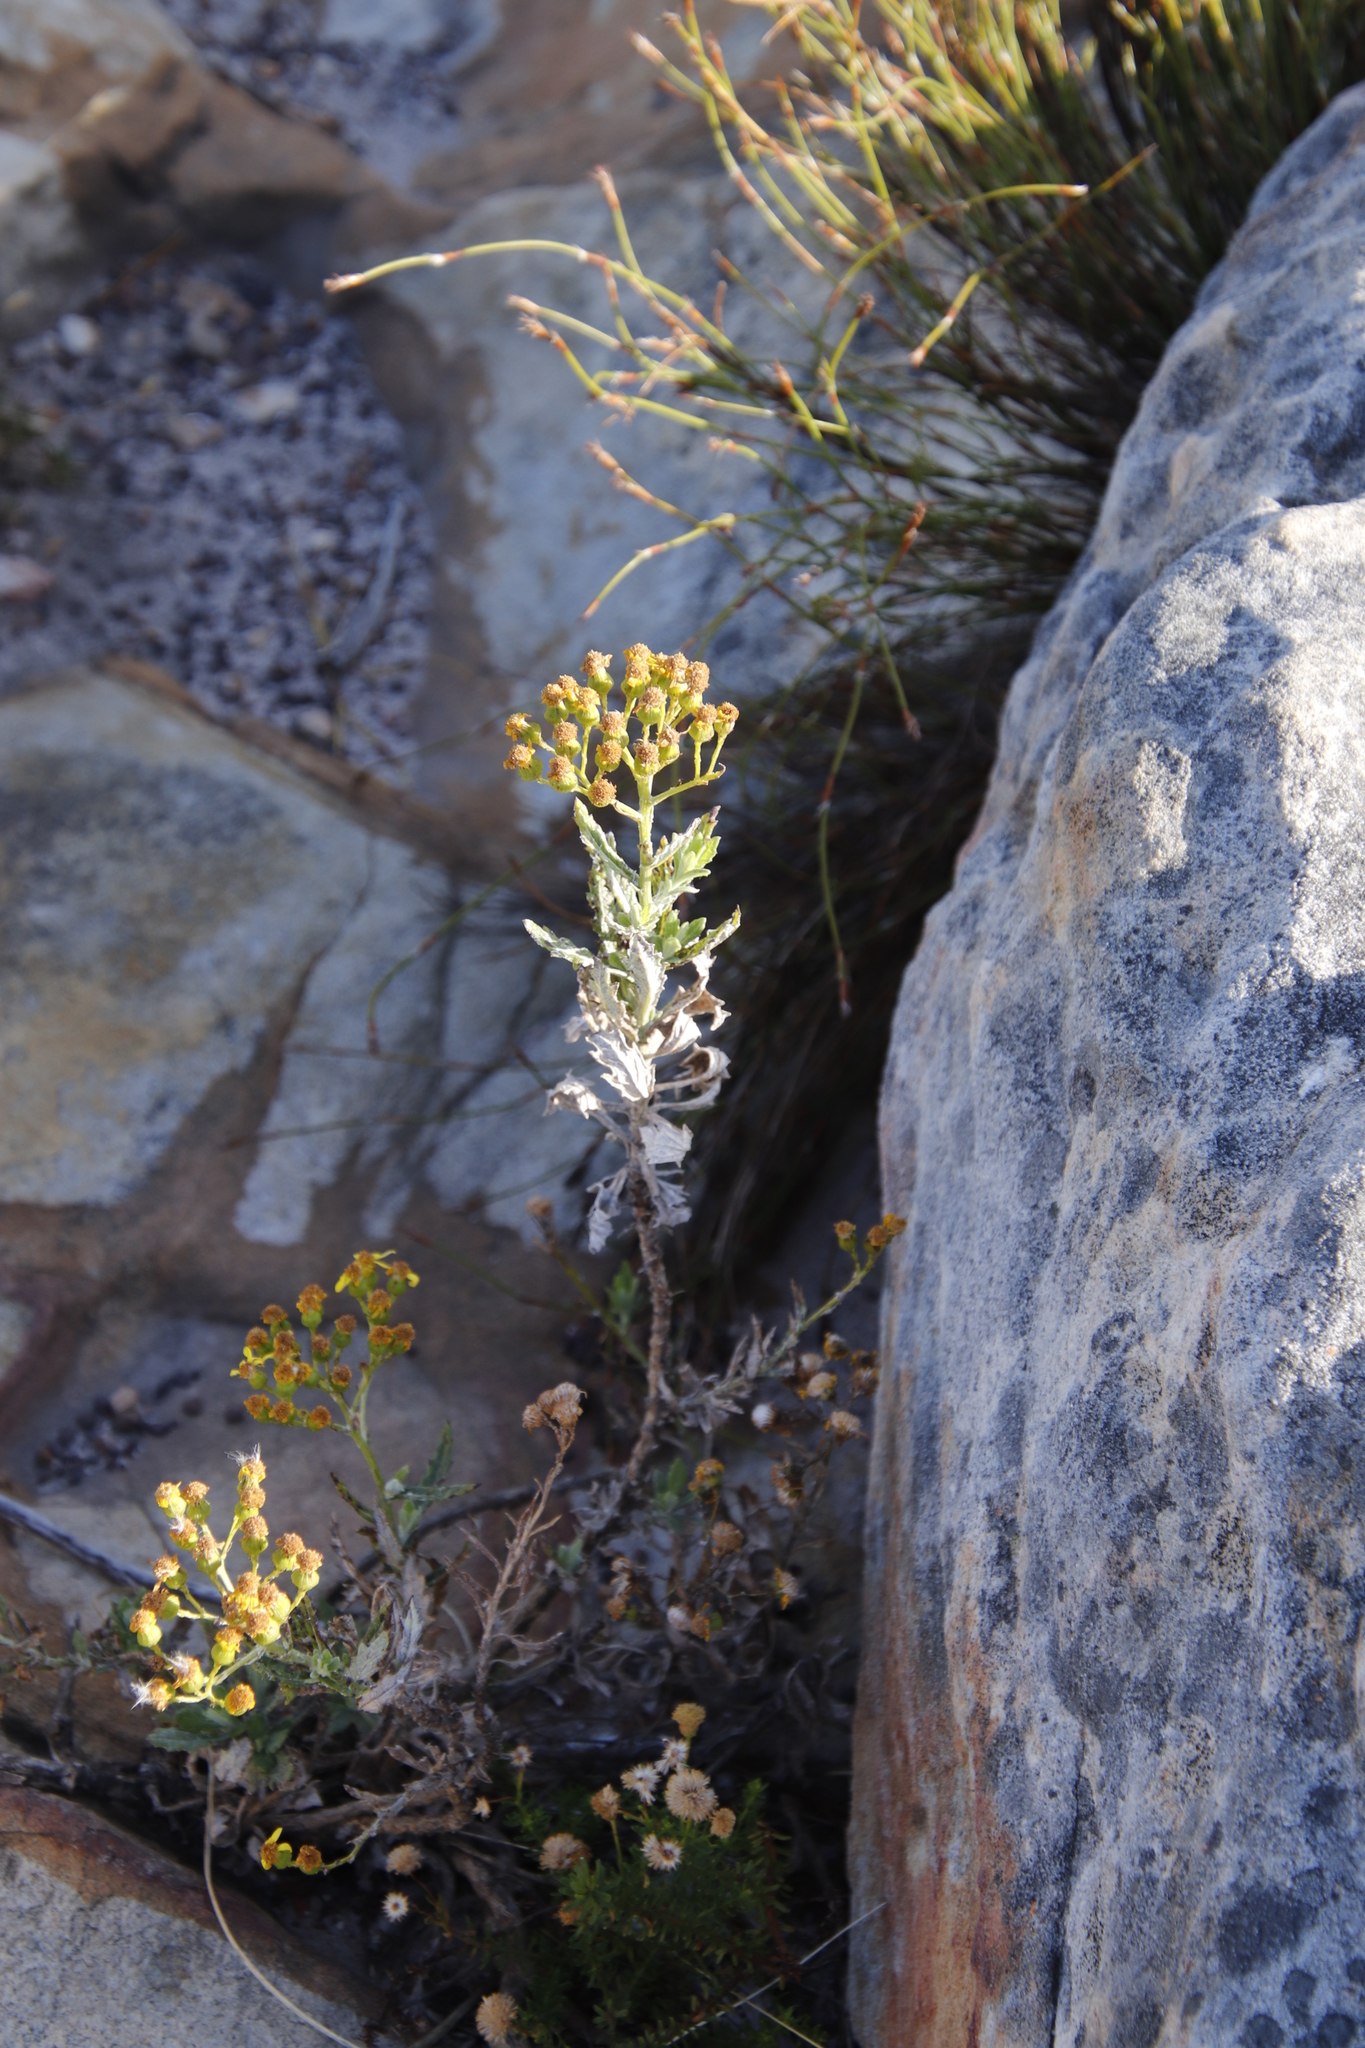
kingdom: Plantae
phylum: Tracheophyta
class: Magnoliopsida
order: Asterales
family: Asteraceae
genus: Senecio
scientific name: Senecio pterophorus
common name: Shoddy ragwort
